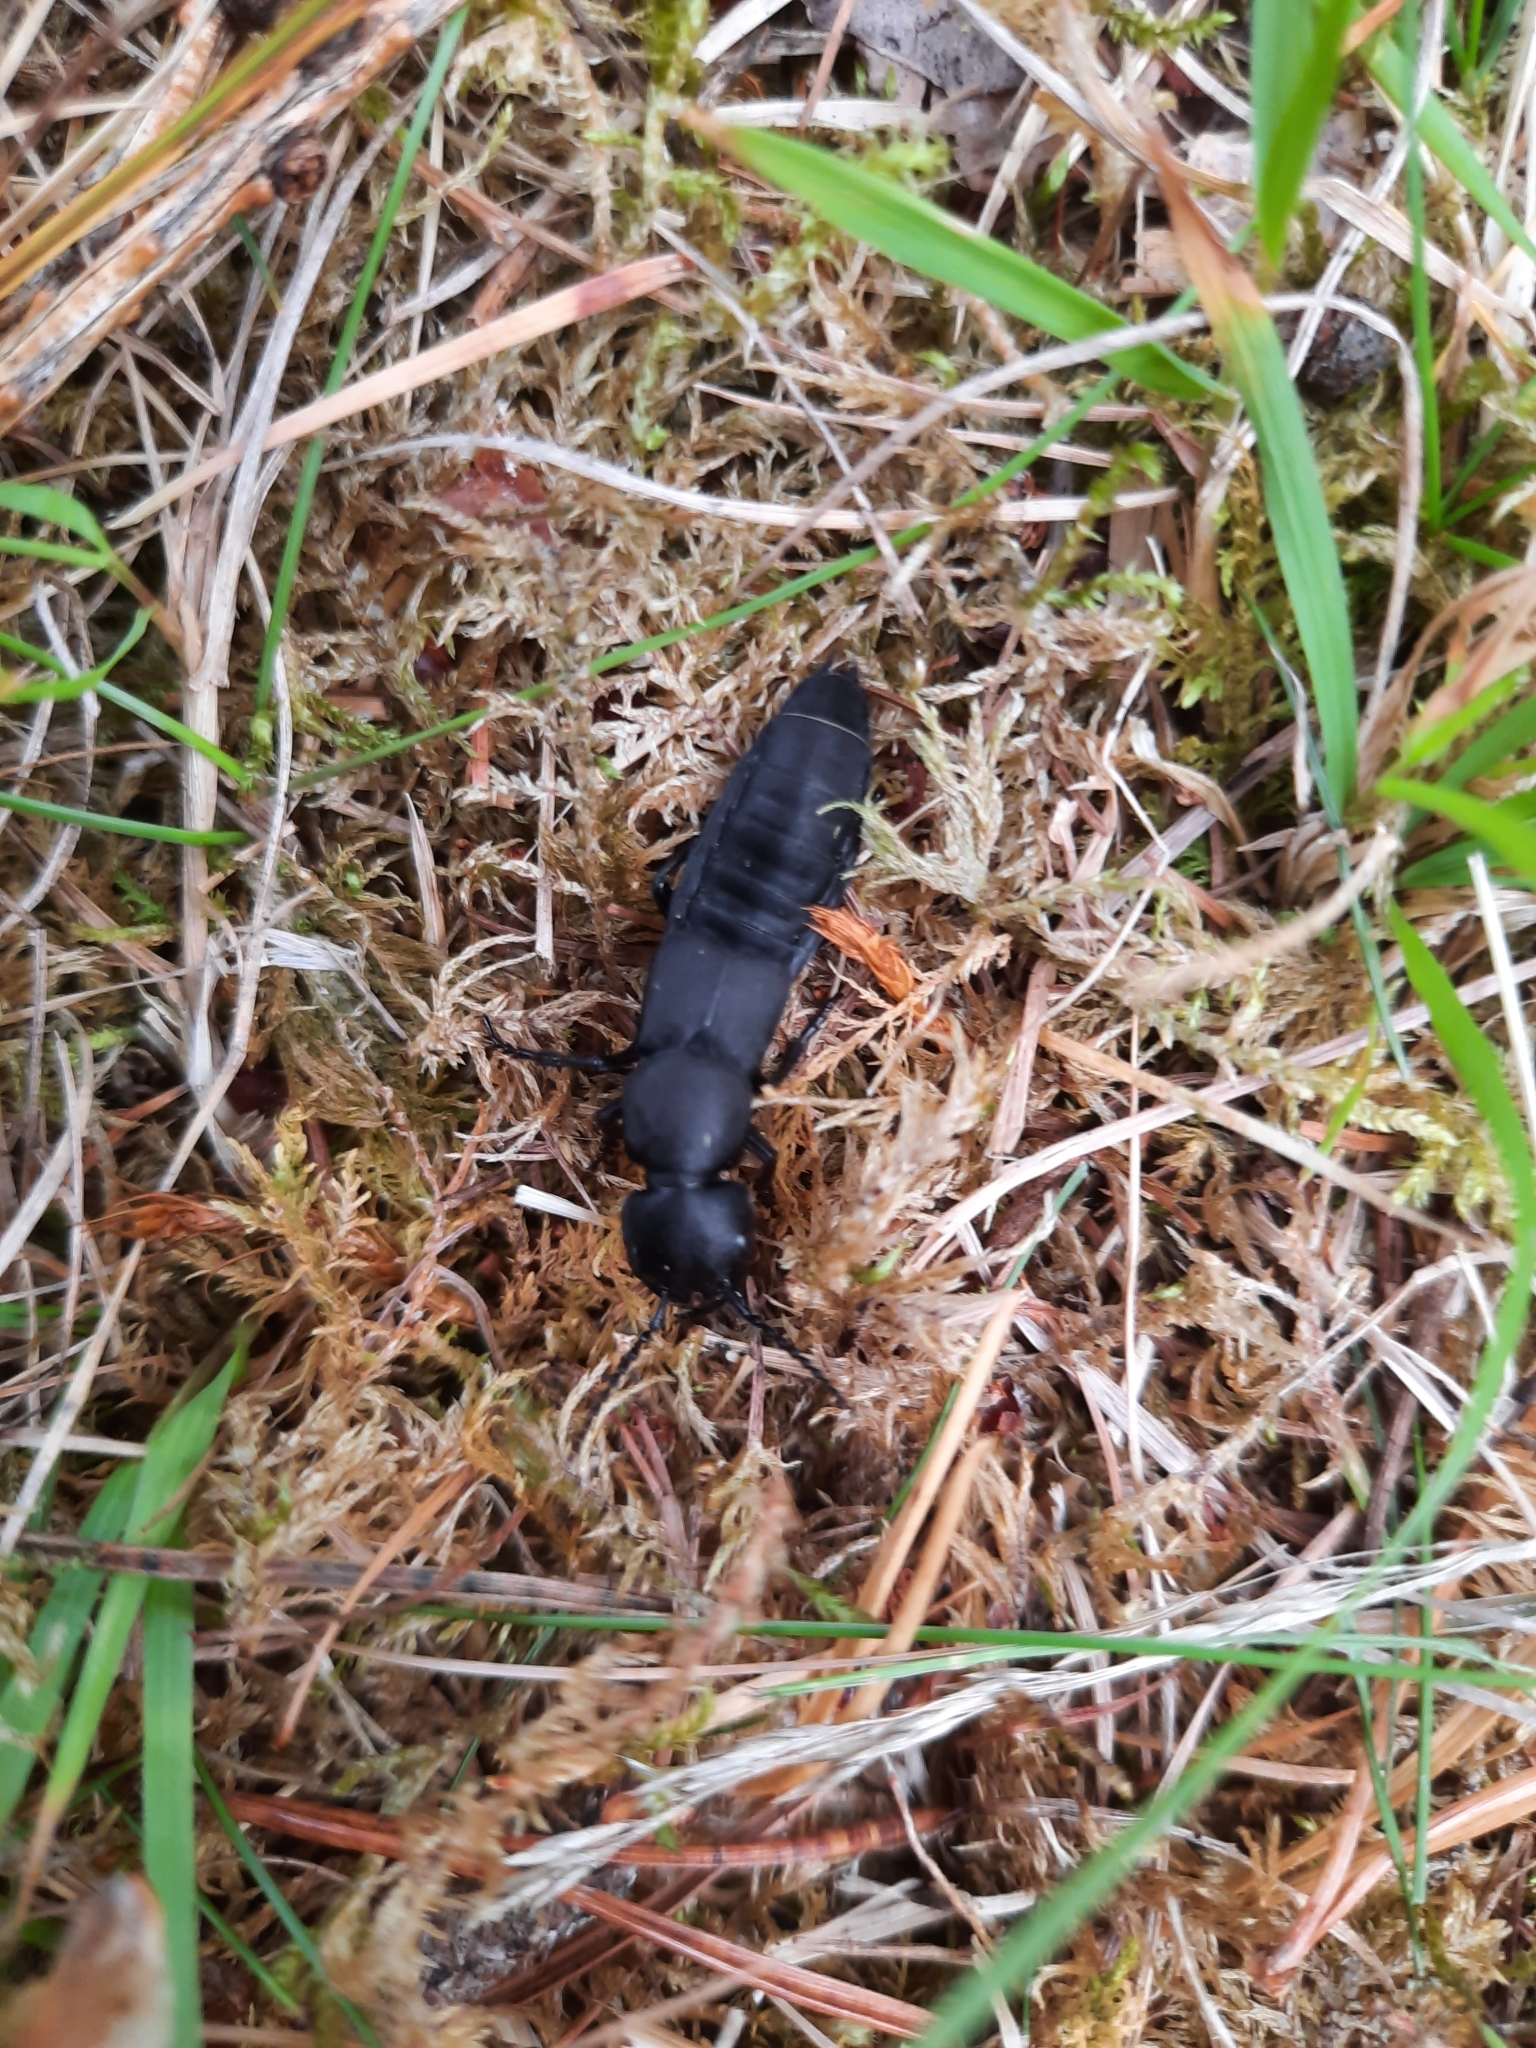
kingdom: Animalia
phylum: Arthropoda
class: Insecta
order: Coleoptera
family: Staphylinidae
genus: Ocypus
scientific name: Ocypus olens
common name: Devil's coach-horse
